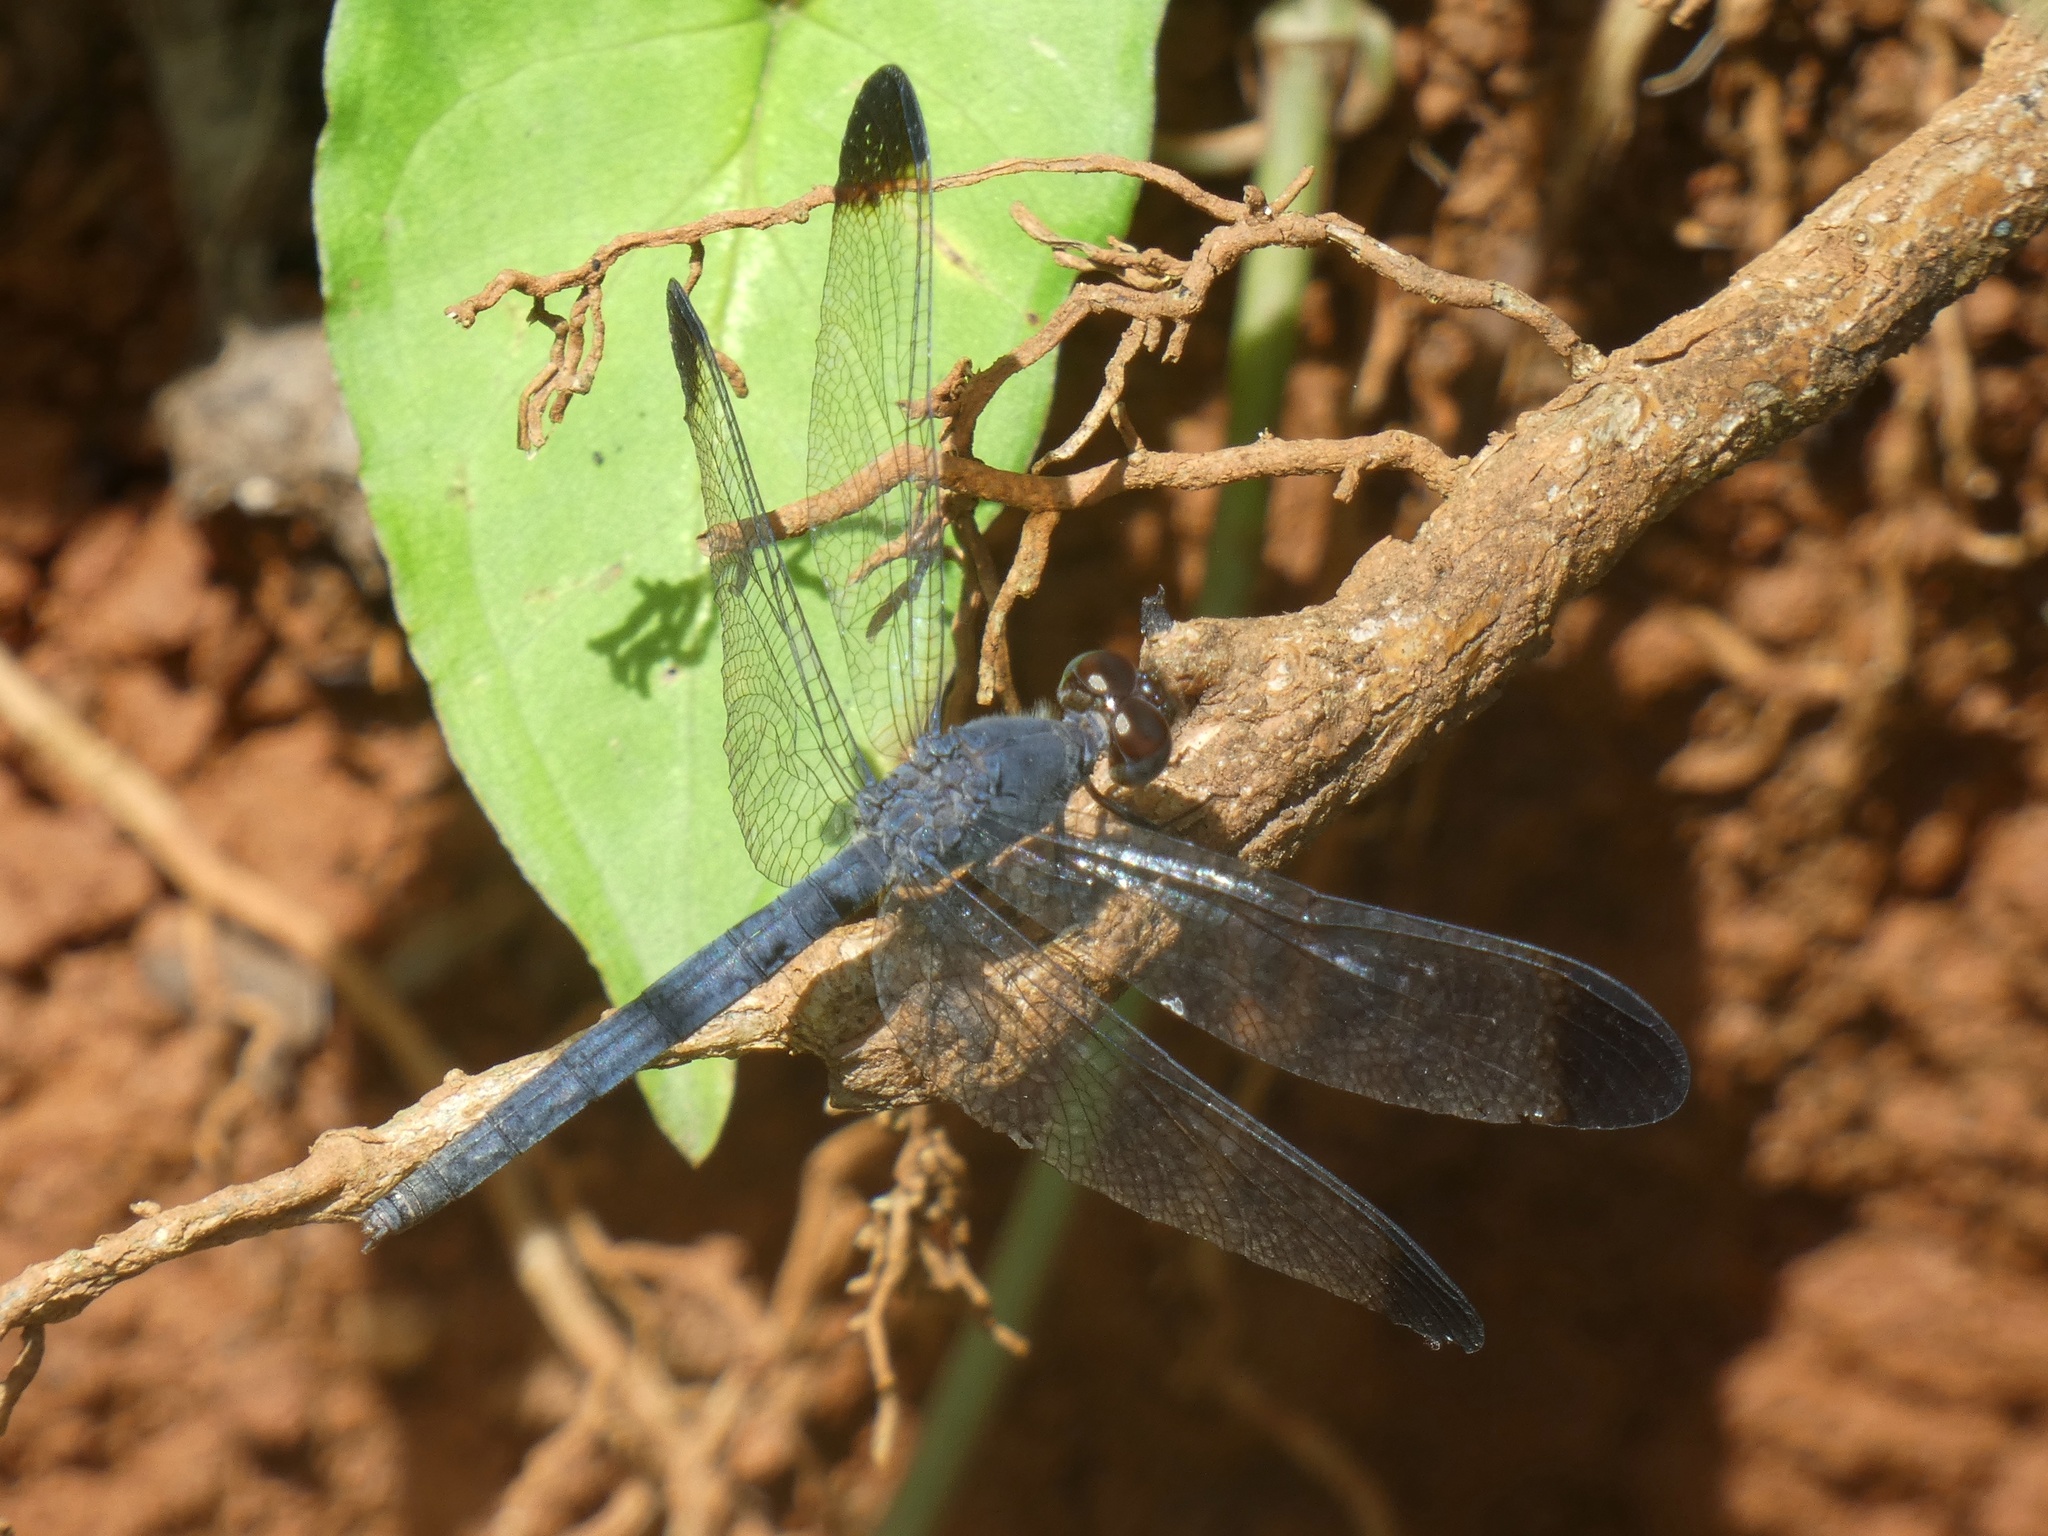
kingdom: Animalia
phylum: Arthropoda
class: Insecta
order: Odonata
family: Libellulidae
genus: Uracis
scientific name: Uracis imbuta
